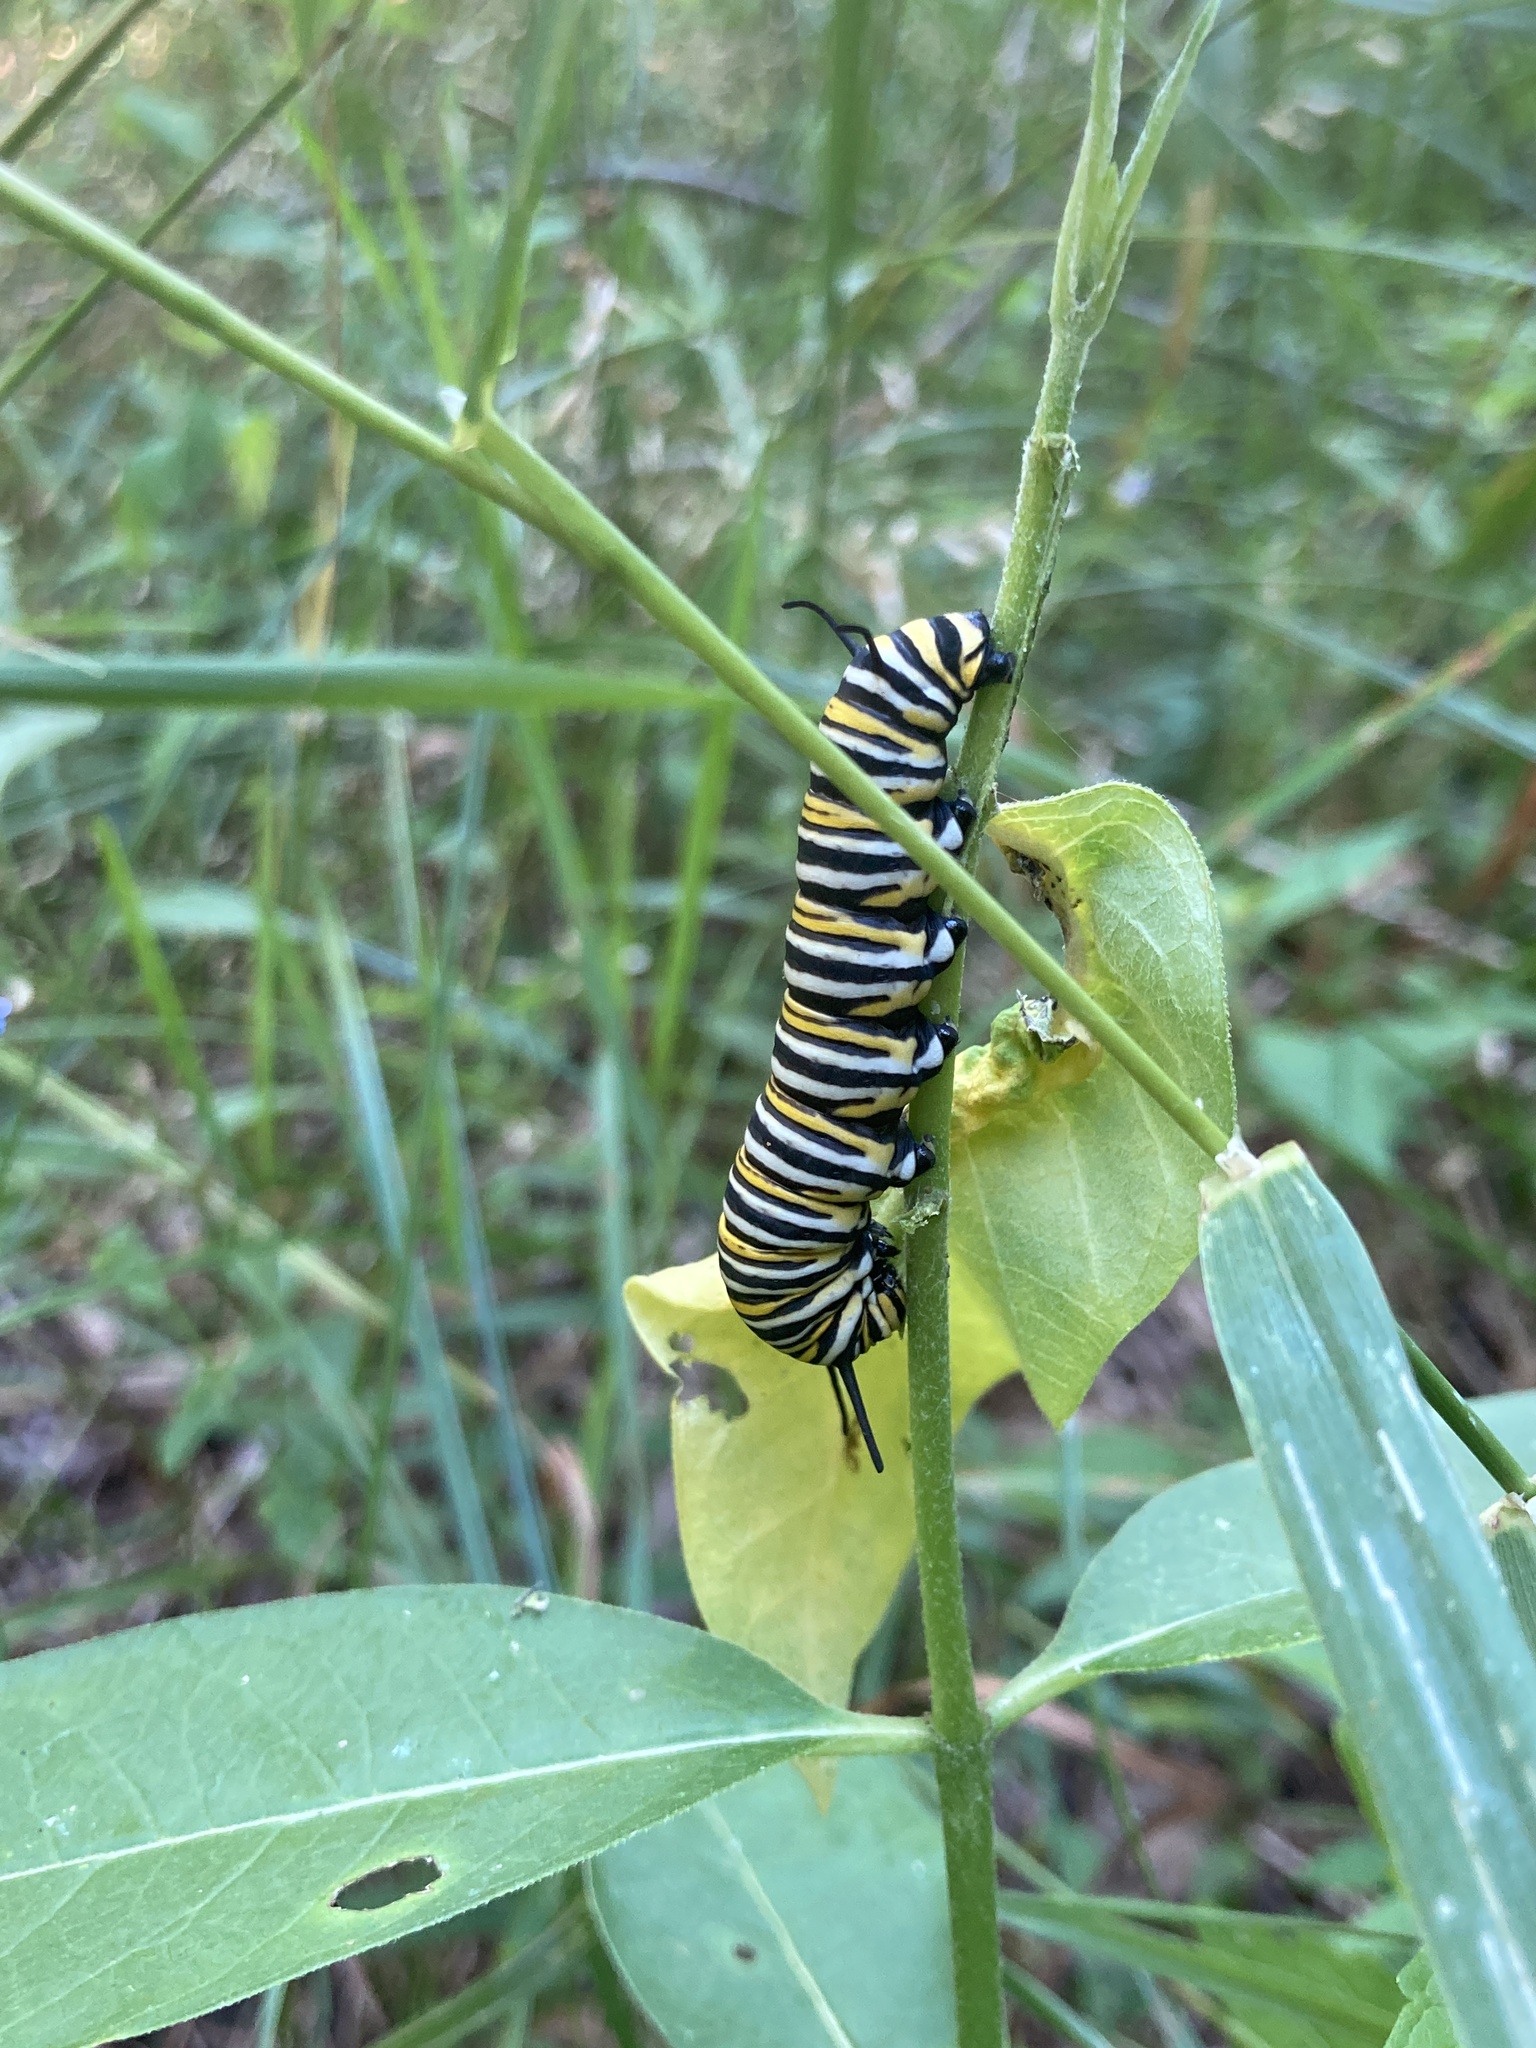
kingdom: Animalia
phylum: Arthropoda
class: Insecta
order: Lepidoptera
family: Nymphalidae
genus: Danaus
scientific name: Danaus plexippus
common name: Monarch
